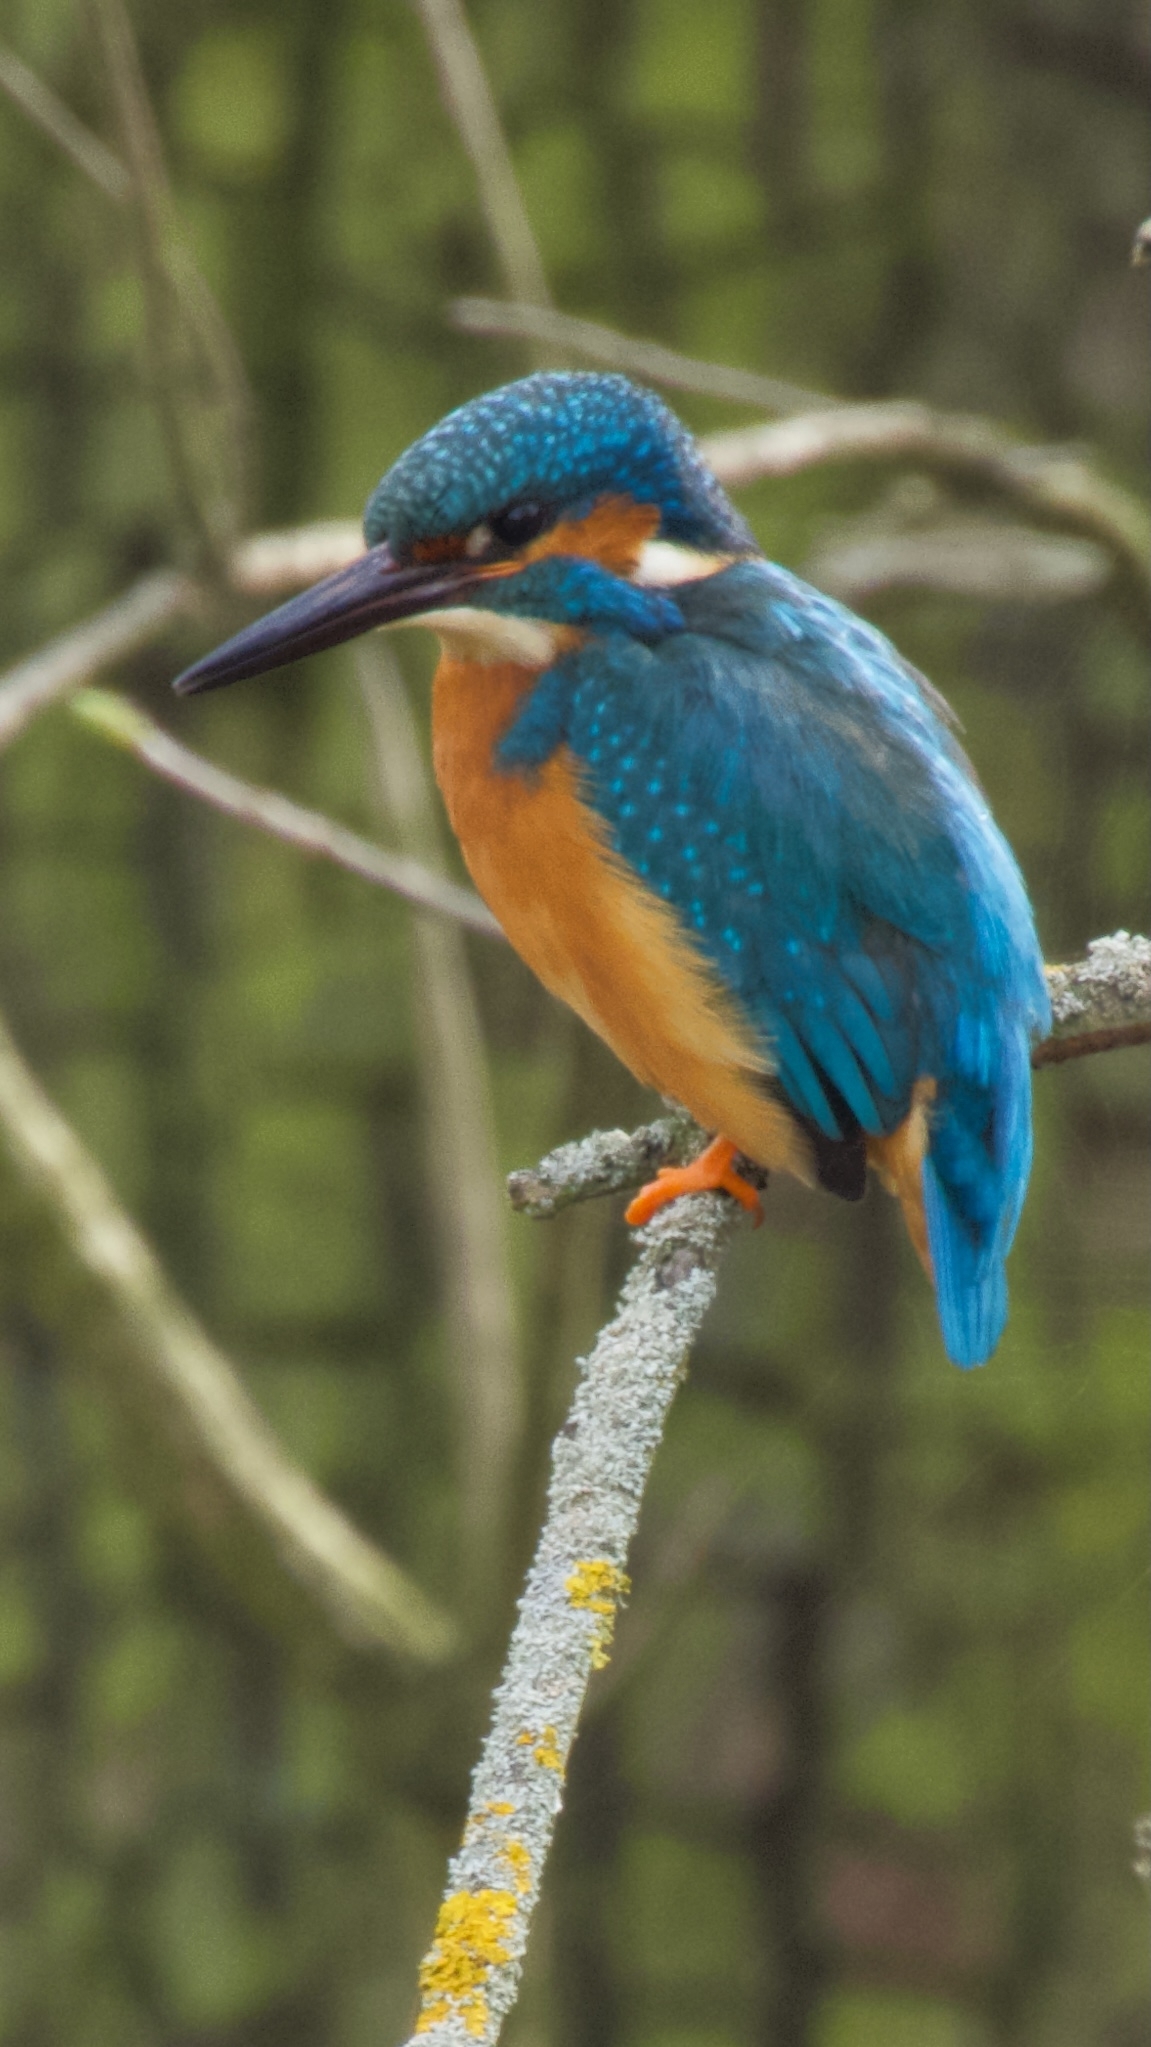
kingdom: Animalia
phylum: Chordata
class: Aves
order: Coraciiformes
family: Alcedinidae
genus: Alcedo
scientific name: Alcedo atthis
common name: Common kingfisher
